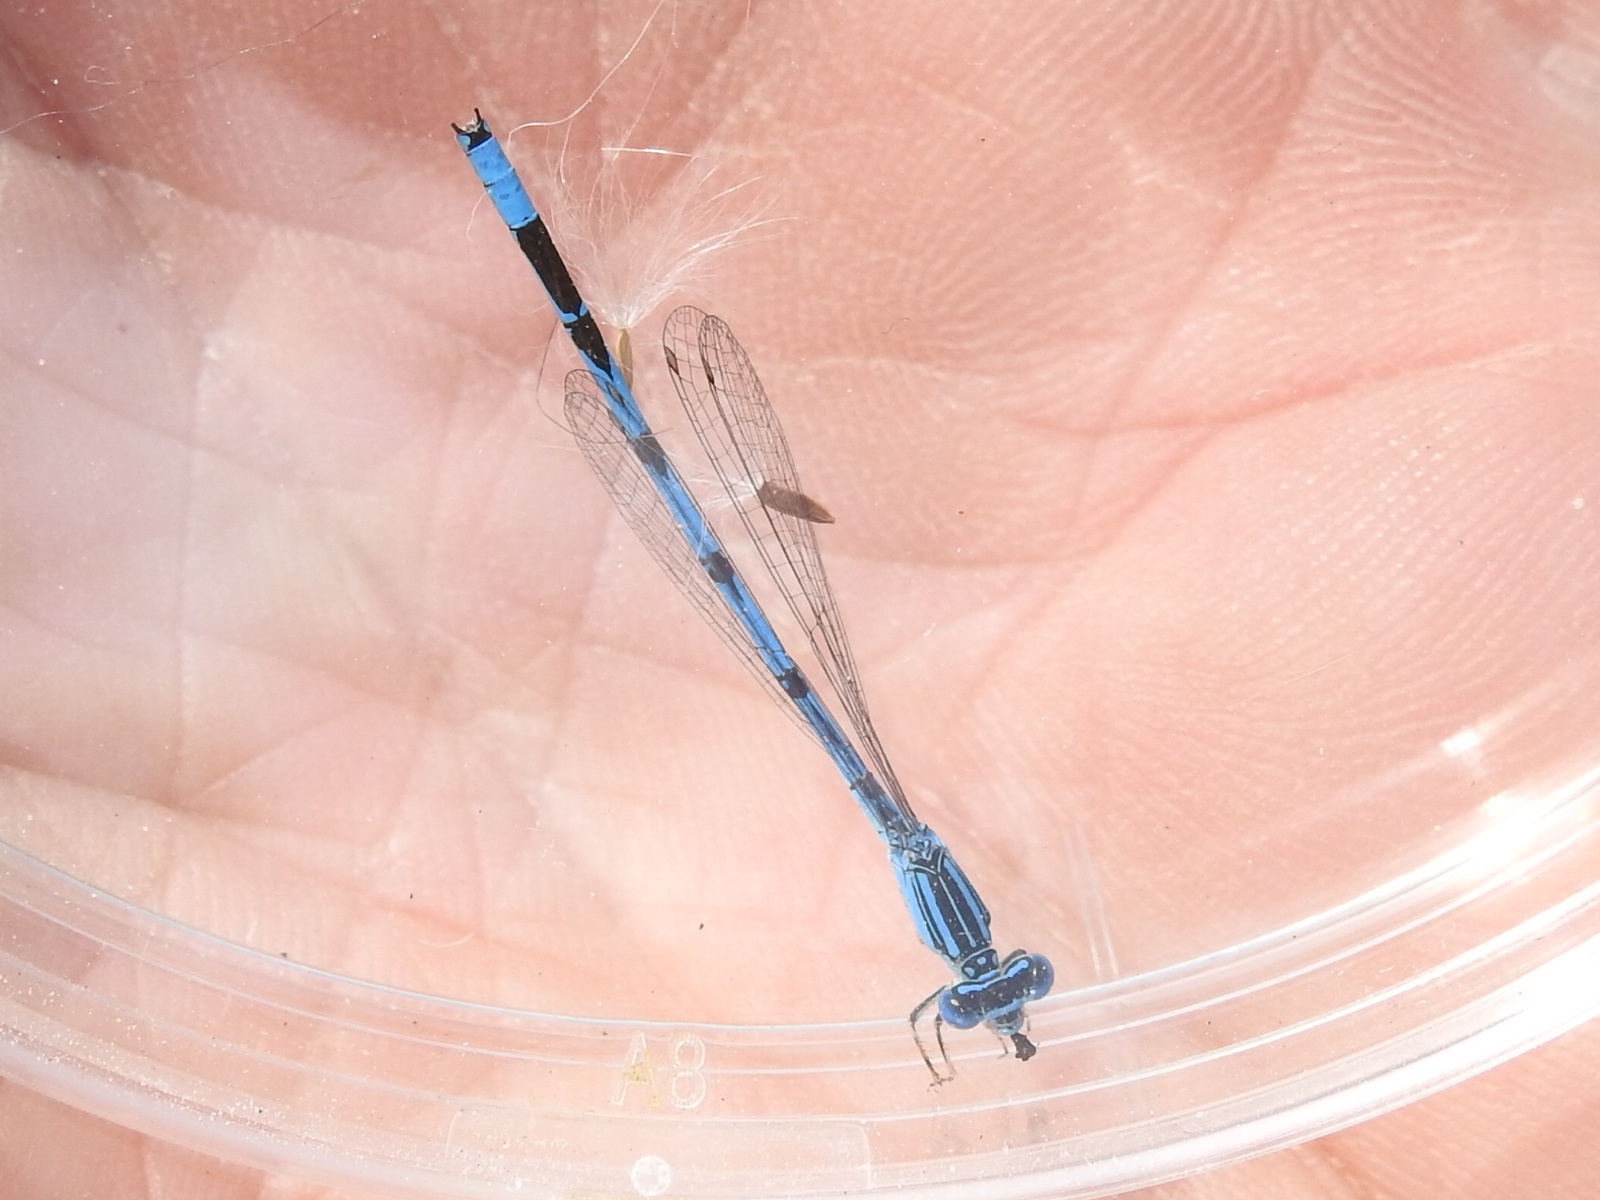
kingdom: Animalia
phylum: Arthropoda
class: Insecta
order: Odonata
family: Coenagrionidae
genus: Enallagma
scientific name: Enallagma basidens
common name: Double-striped bluet
